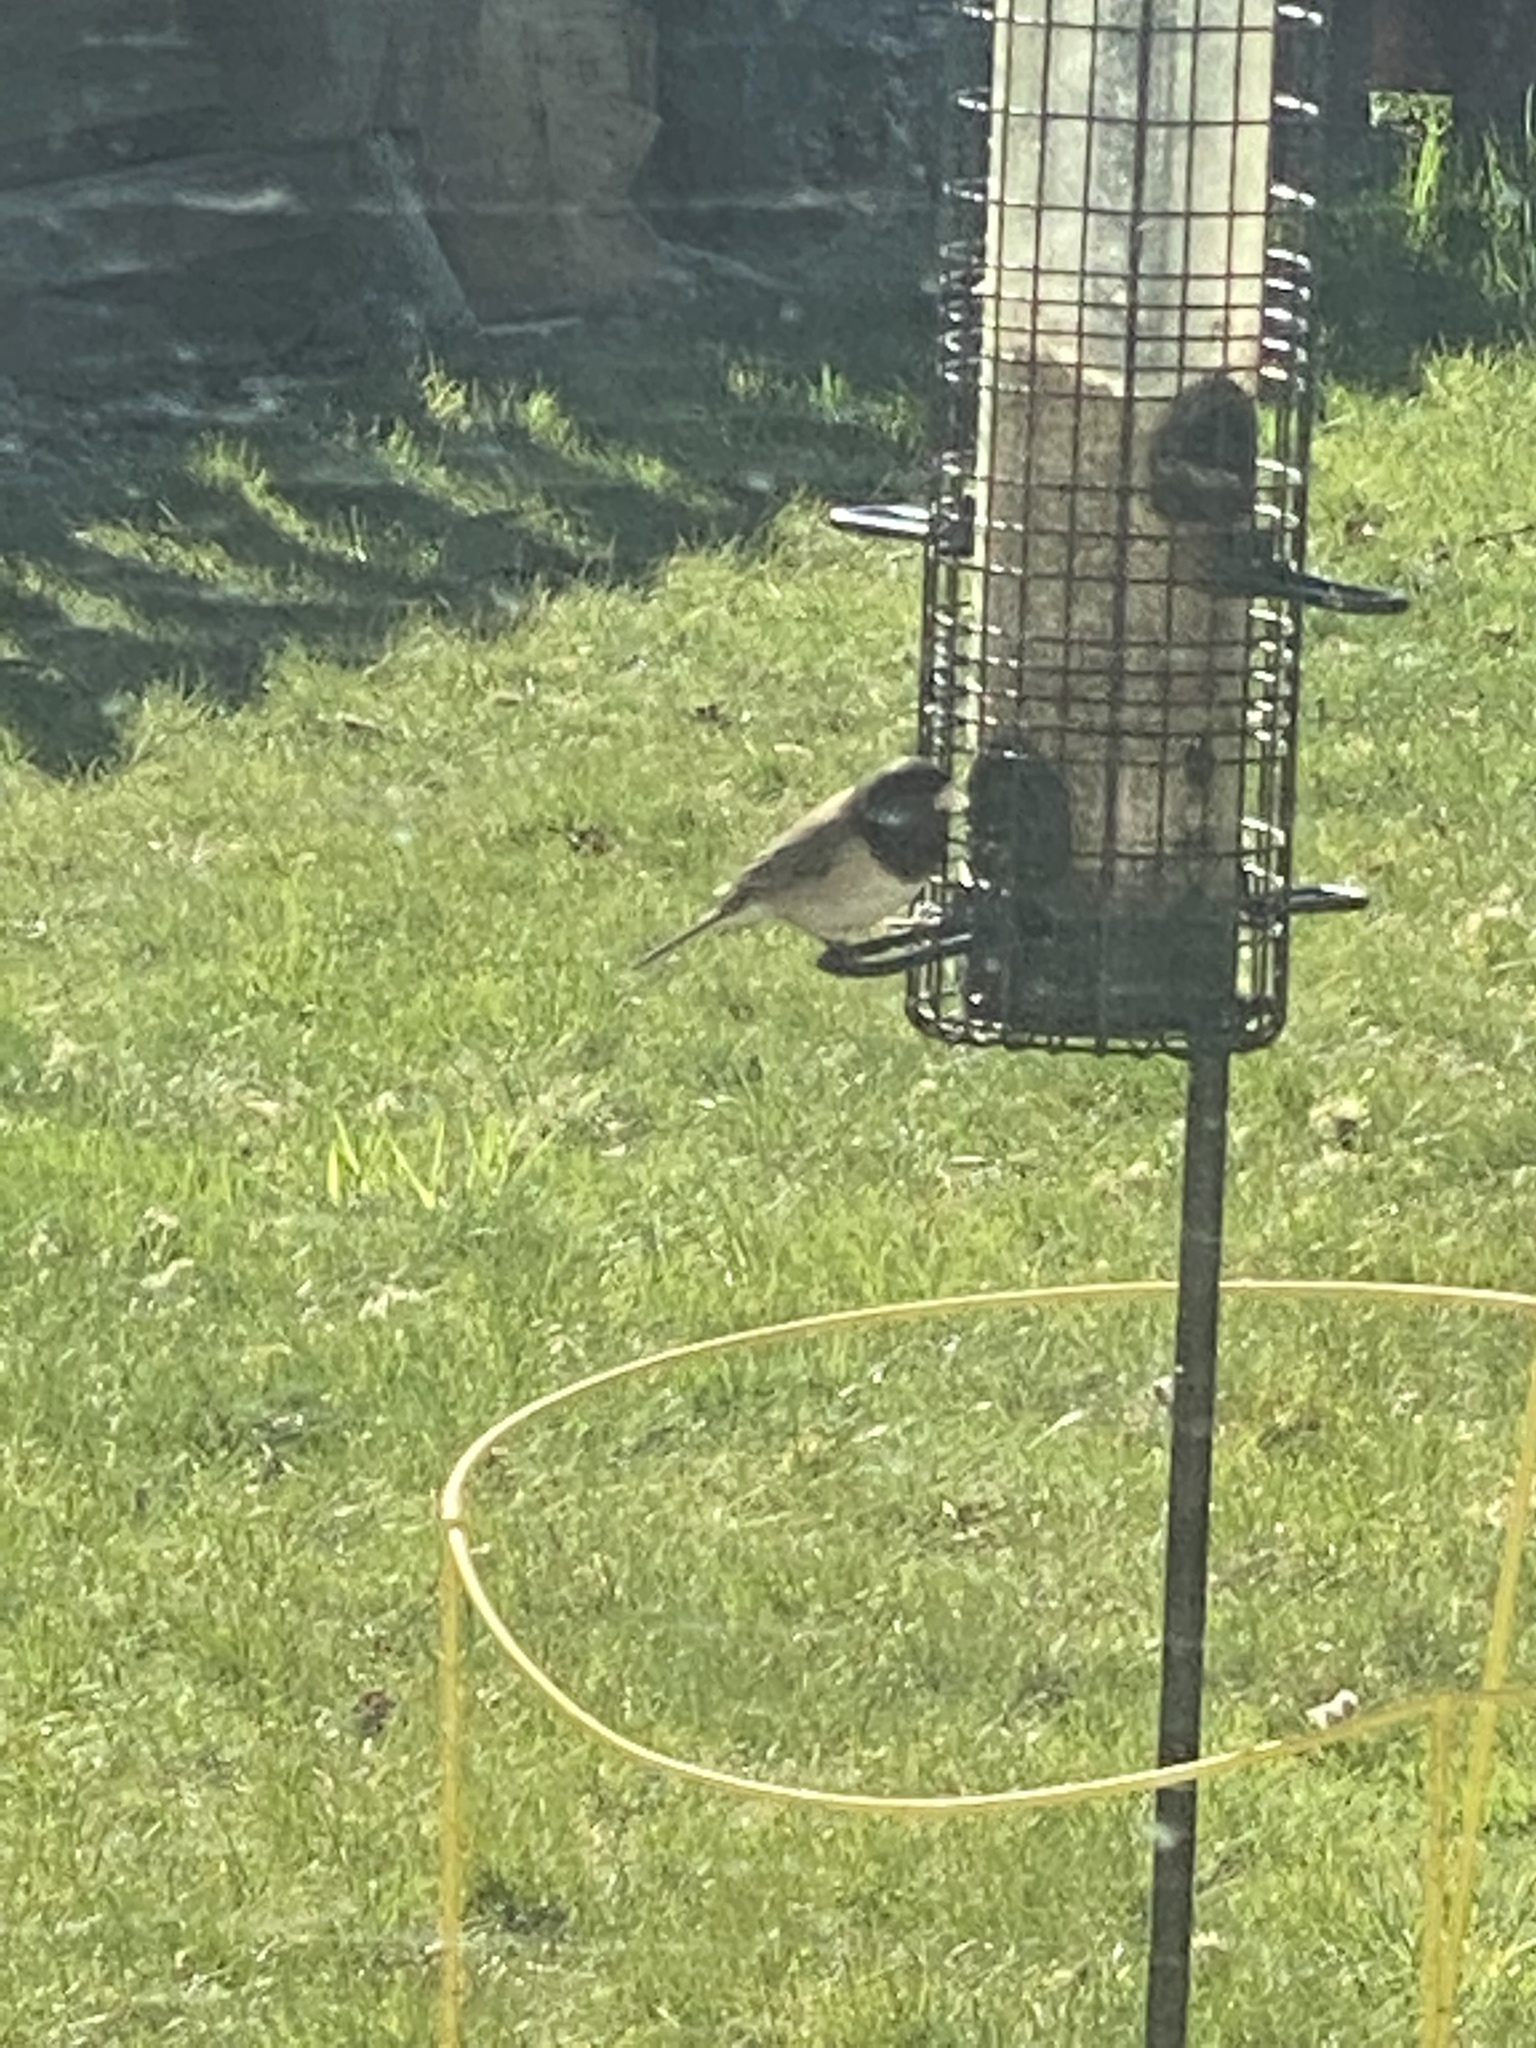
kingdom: Animalia
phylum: Chordata
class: Aves
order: Passeriformes
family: Passerellidae
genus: Junco
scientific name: Junco hyemalis
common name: Dark-eyed junco
